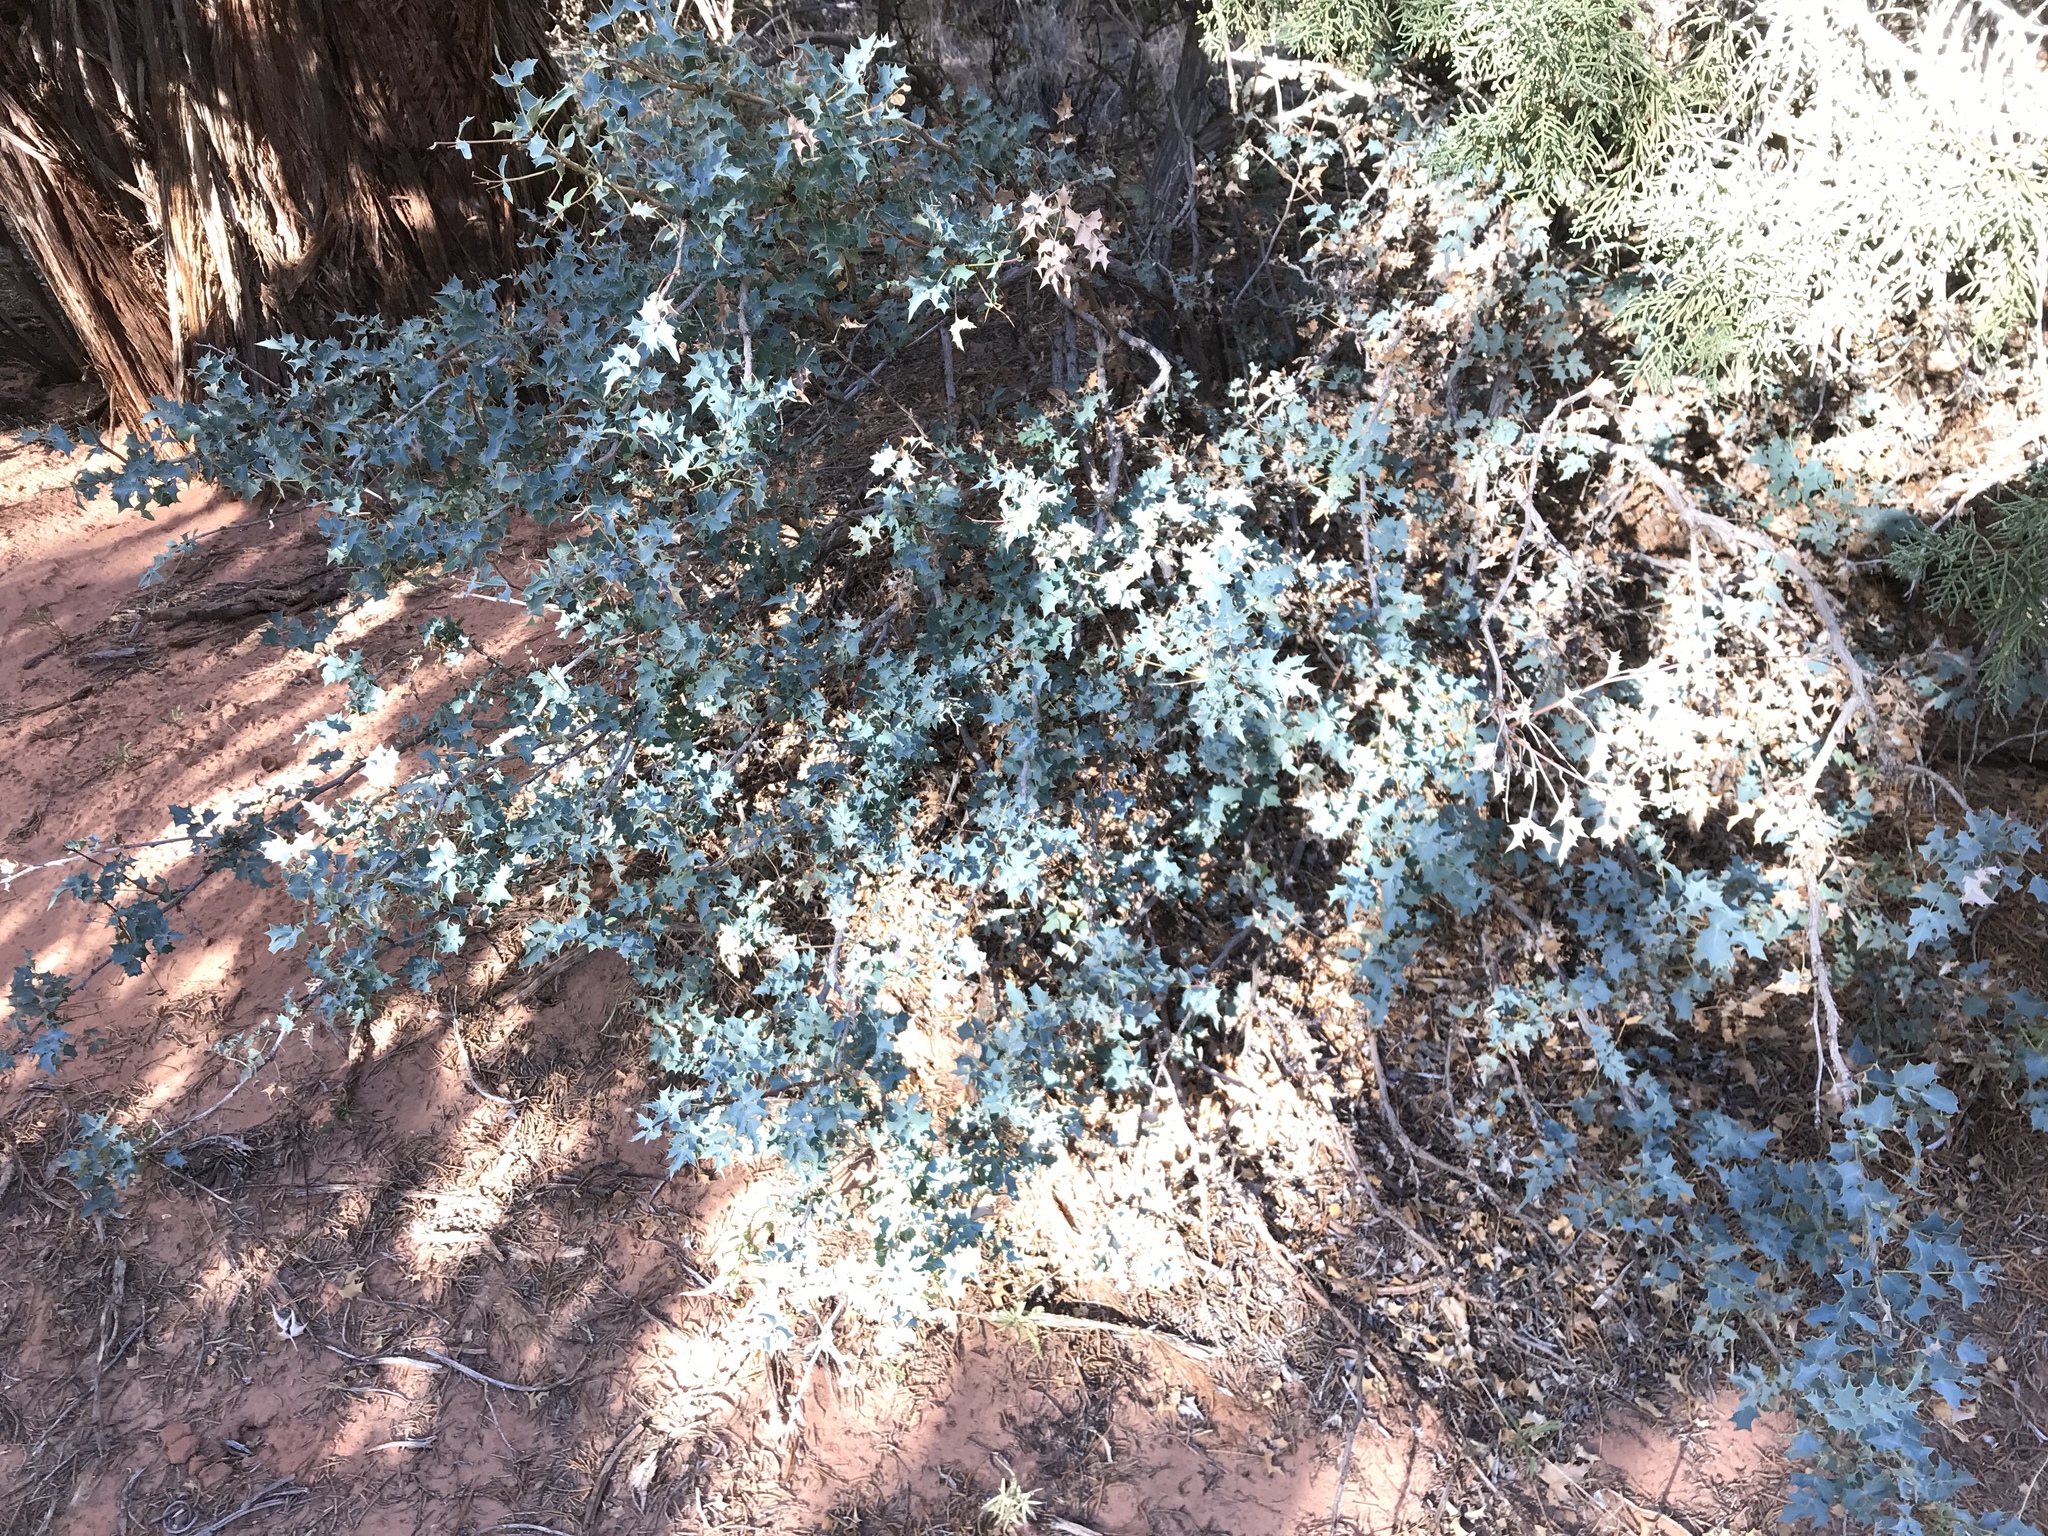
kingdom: Plantae
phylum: Tracheophyta
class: Magnoliopsida
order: Ranunculales
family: Berberidaceae
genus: Alloberberis
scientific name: Alloberberis fremontii
